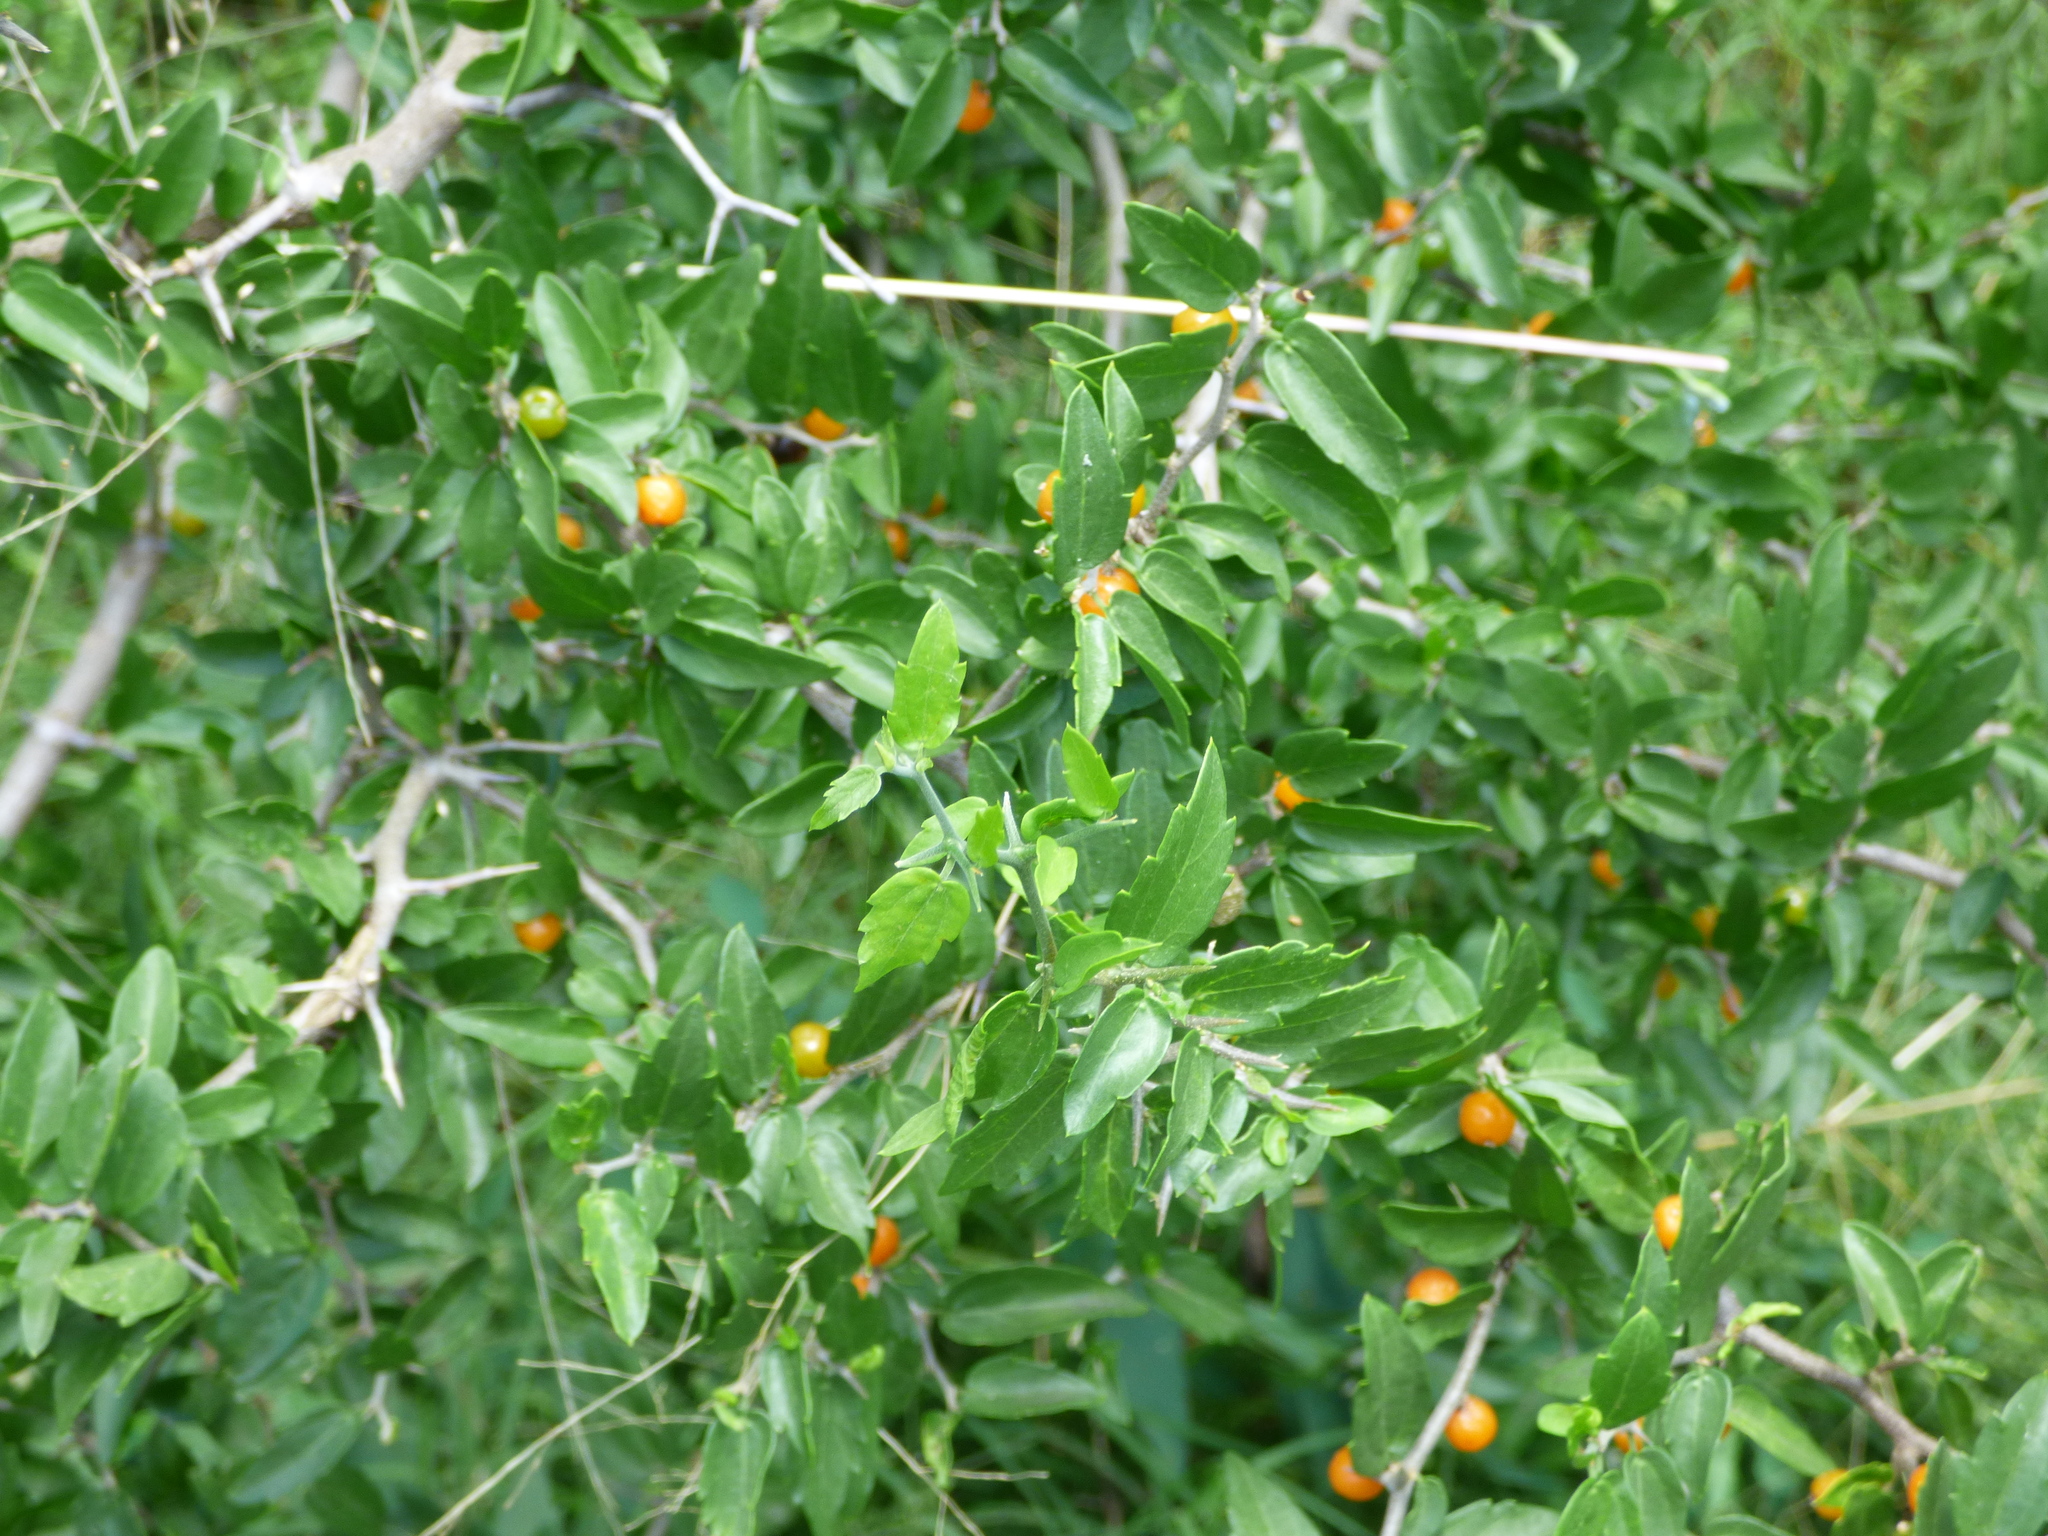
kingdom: Plantae
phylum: Tracheophyta
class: Magnoliopsida
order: Rosales
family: Cannabaceae
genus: Celtis
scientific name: Celtis pallida
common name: Desert hackberry
